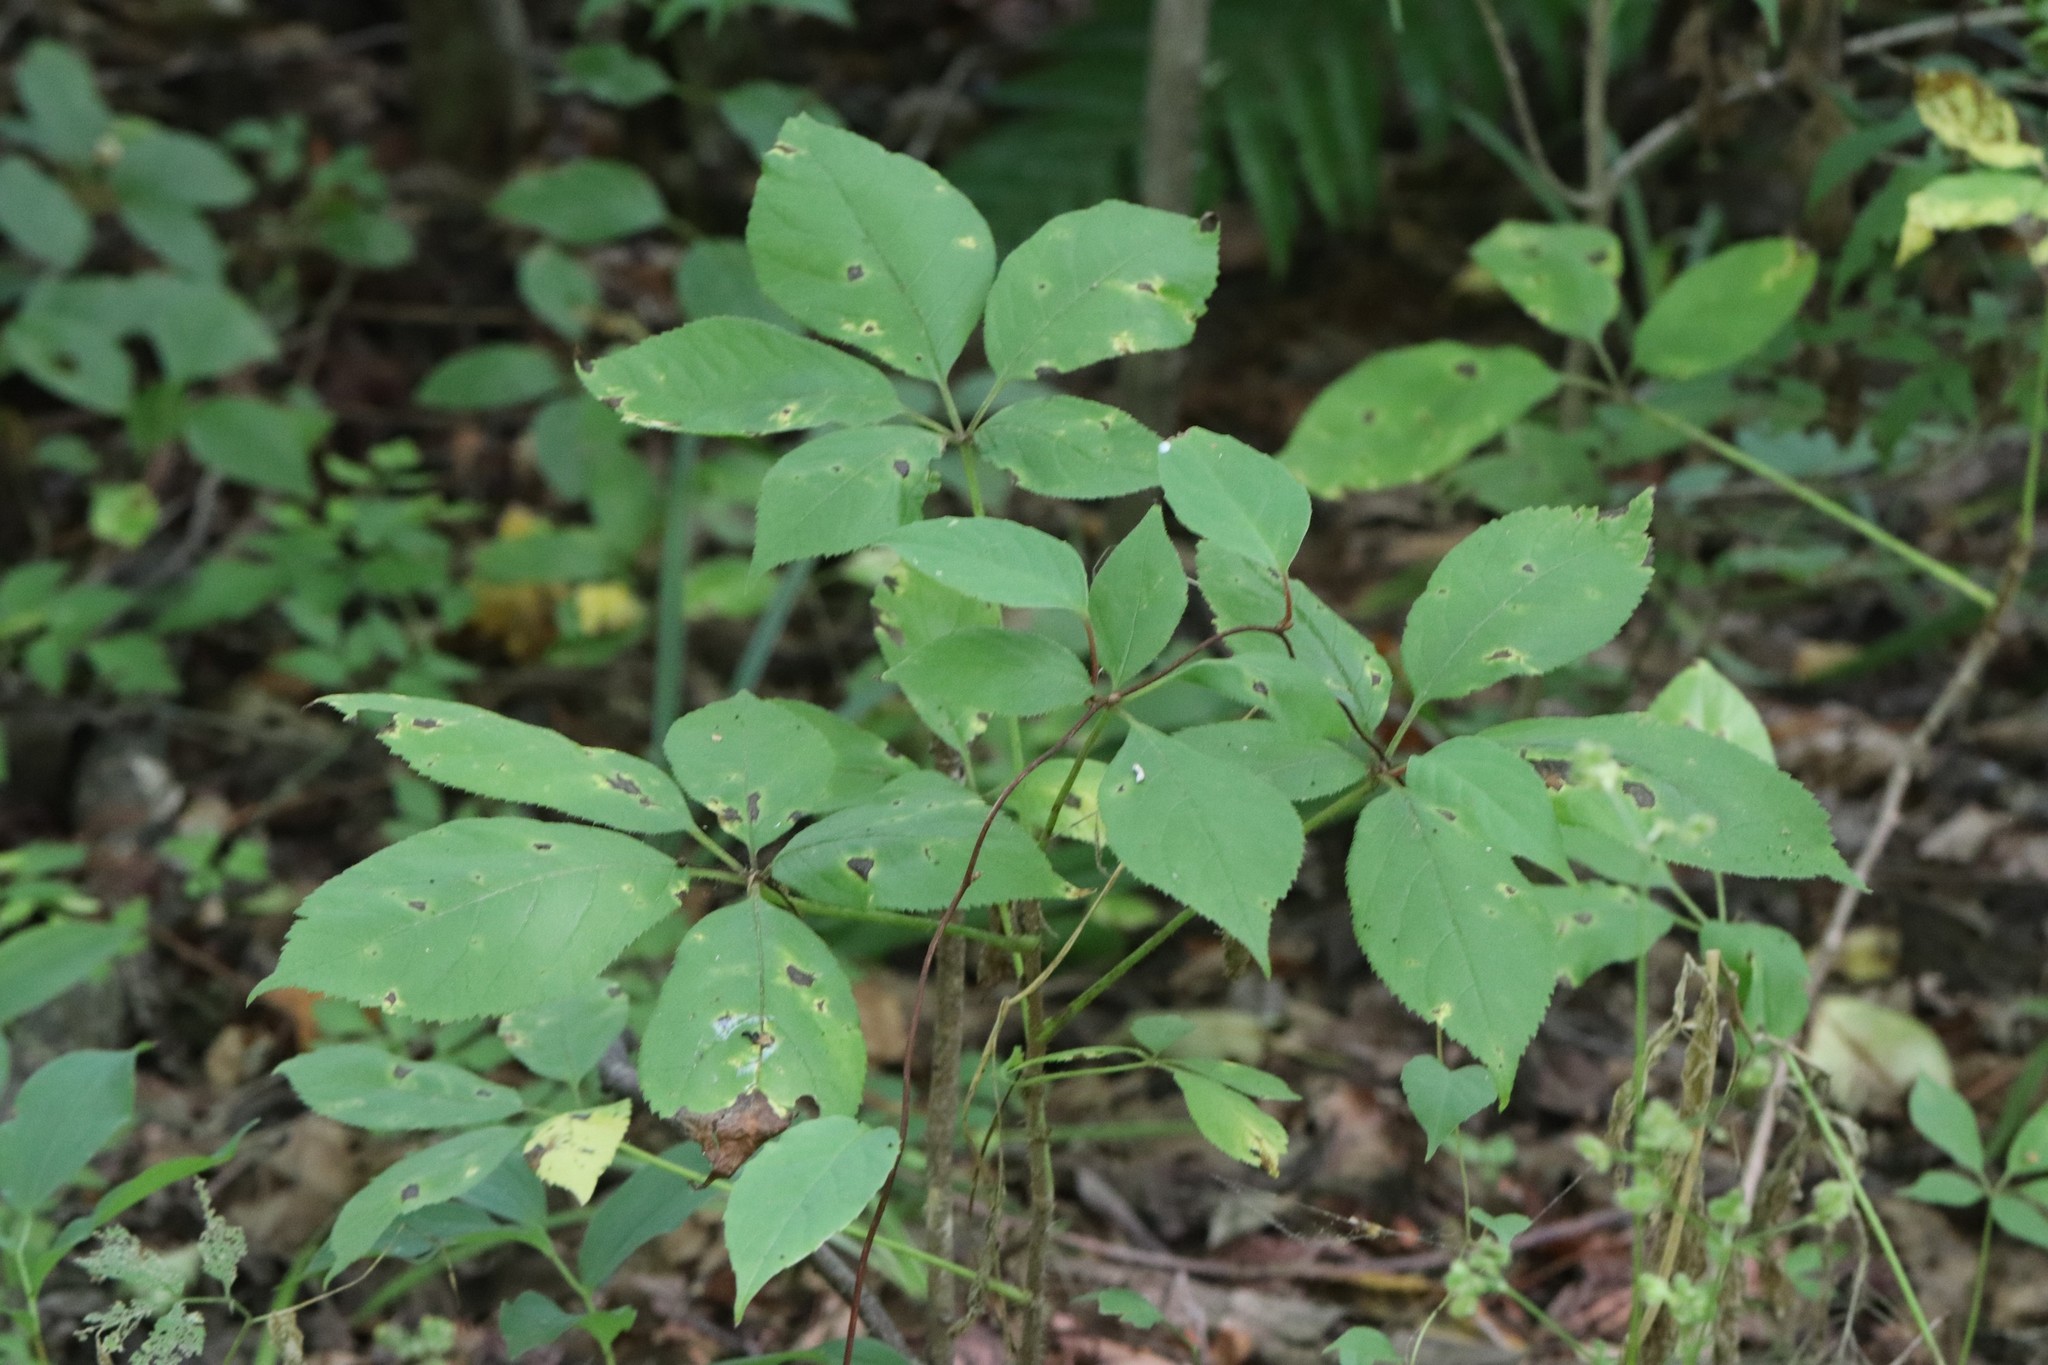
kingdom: Plantae
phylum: Tracheophyta
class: Magnoliopsida
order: Apiales
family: Araliaceae
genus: Eleutherococcus
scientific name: Eleutherococcus senticosus
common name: Siberian-ginseng
